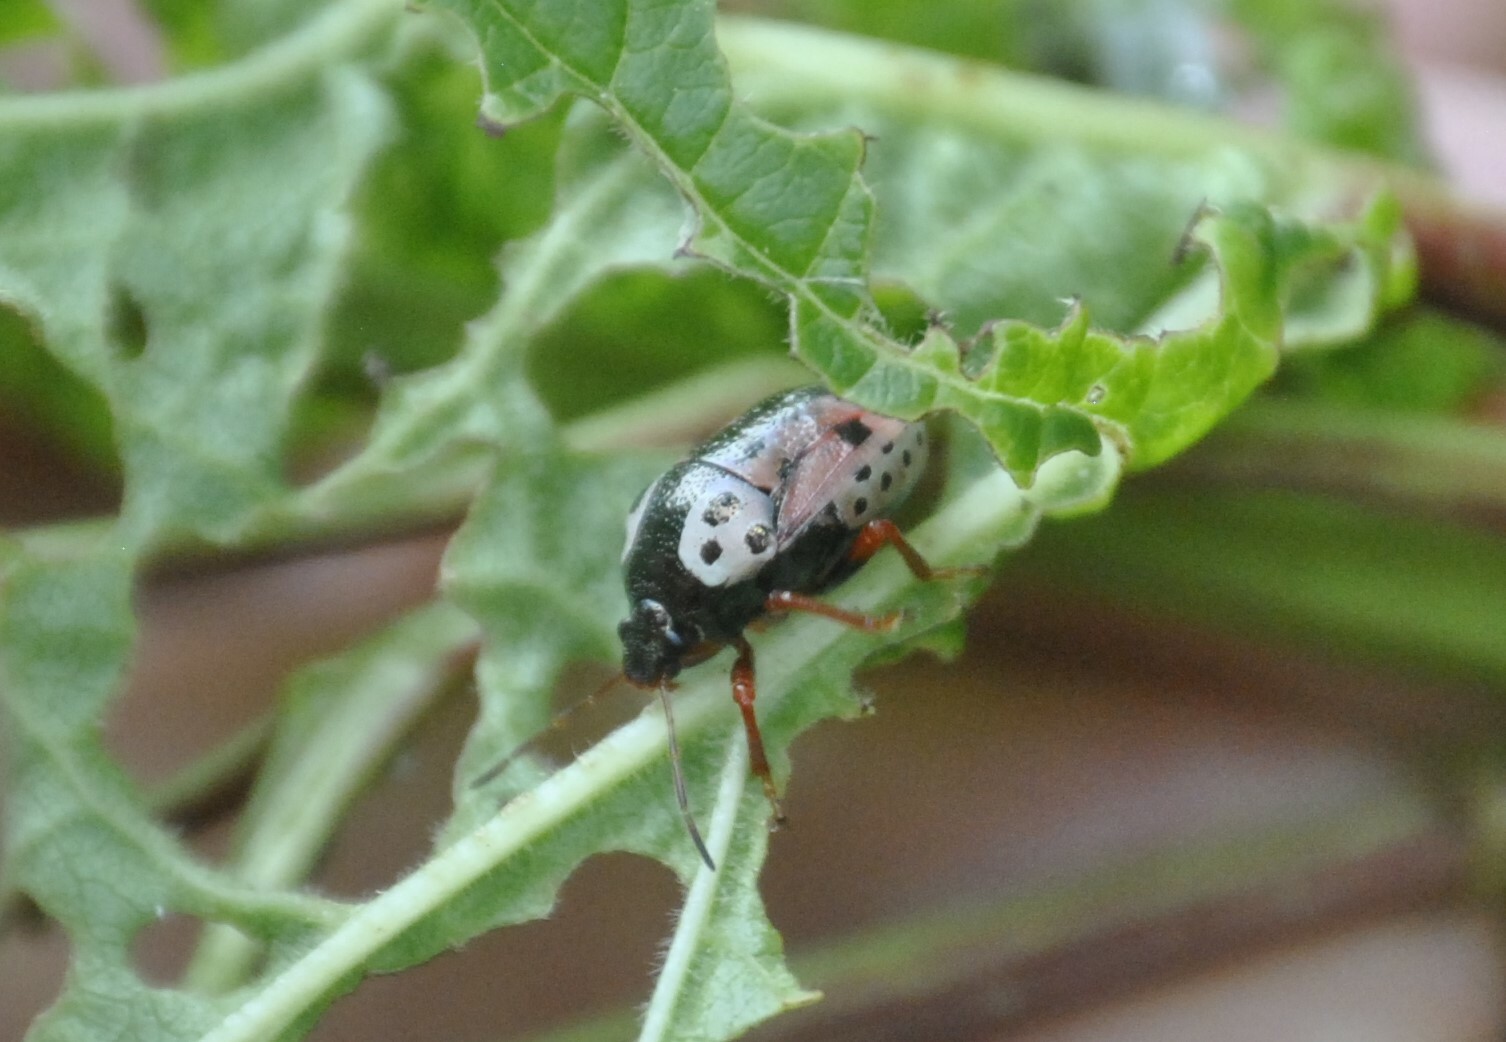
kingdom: Animalia
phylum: Arthropoda
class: Insecta
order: Hemiptera
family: Pentatomidae
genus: Stiretrus
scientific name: Stiretrus anchorago
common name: Anchor stink bug
